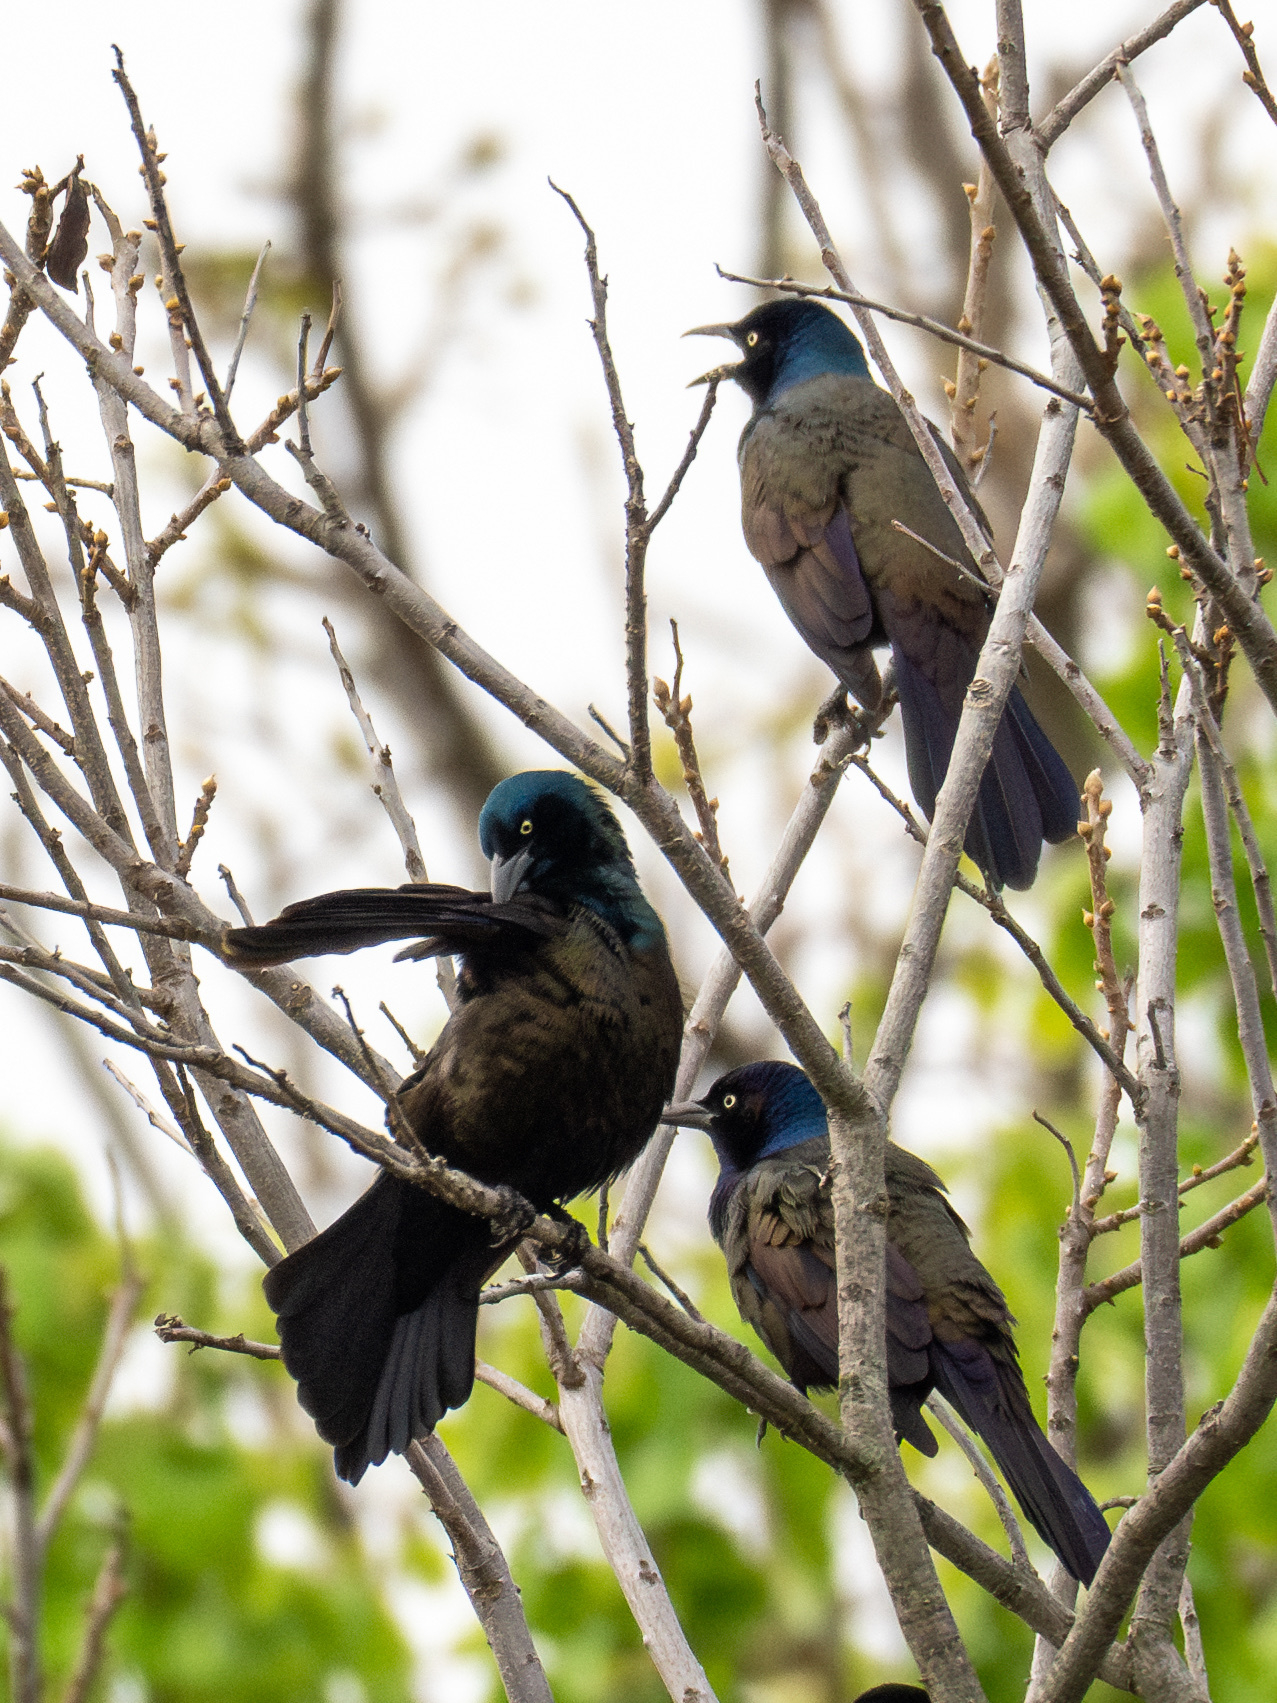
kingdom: Animalia
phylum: Chordata
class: Aves
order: Passeriformes
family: Icteridae
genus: Quiscalus
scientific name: Quiscalus quiscula
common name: Common grackle
